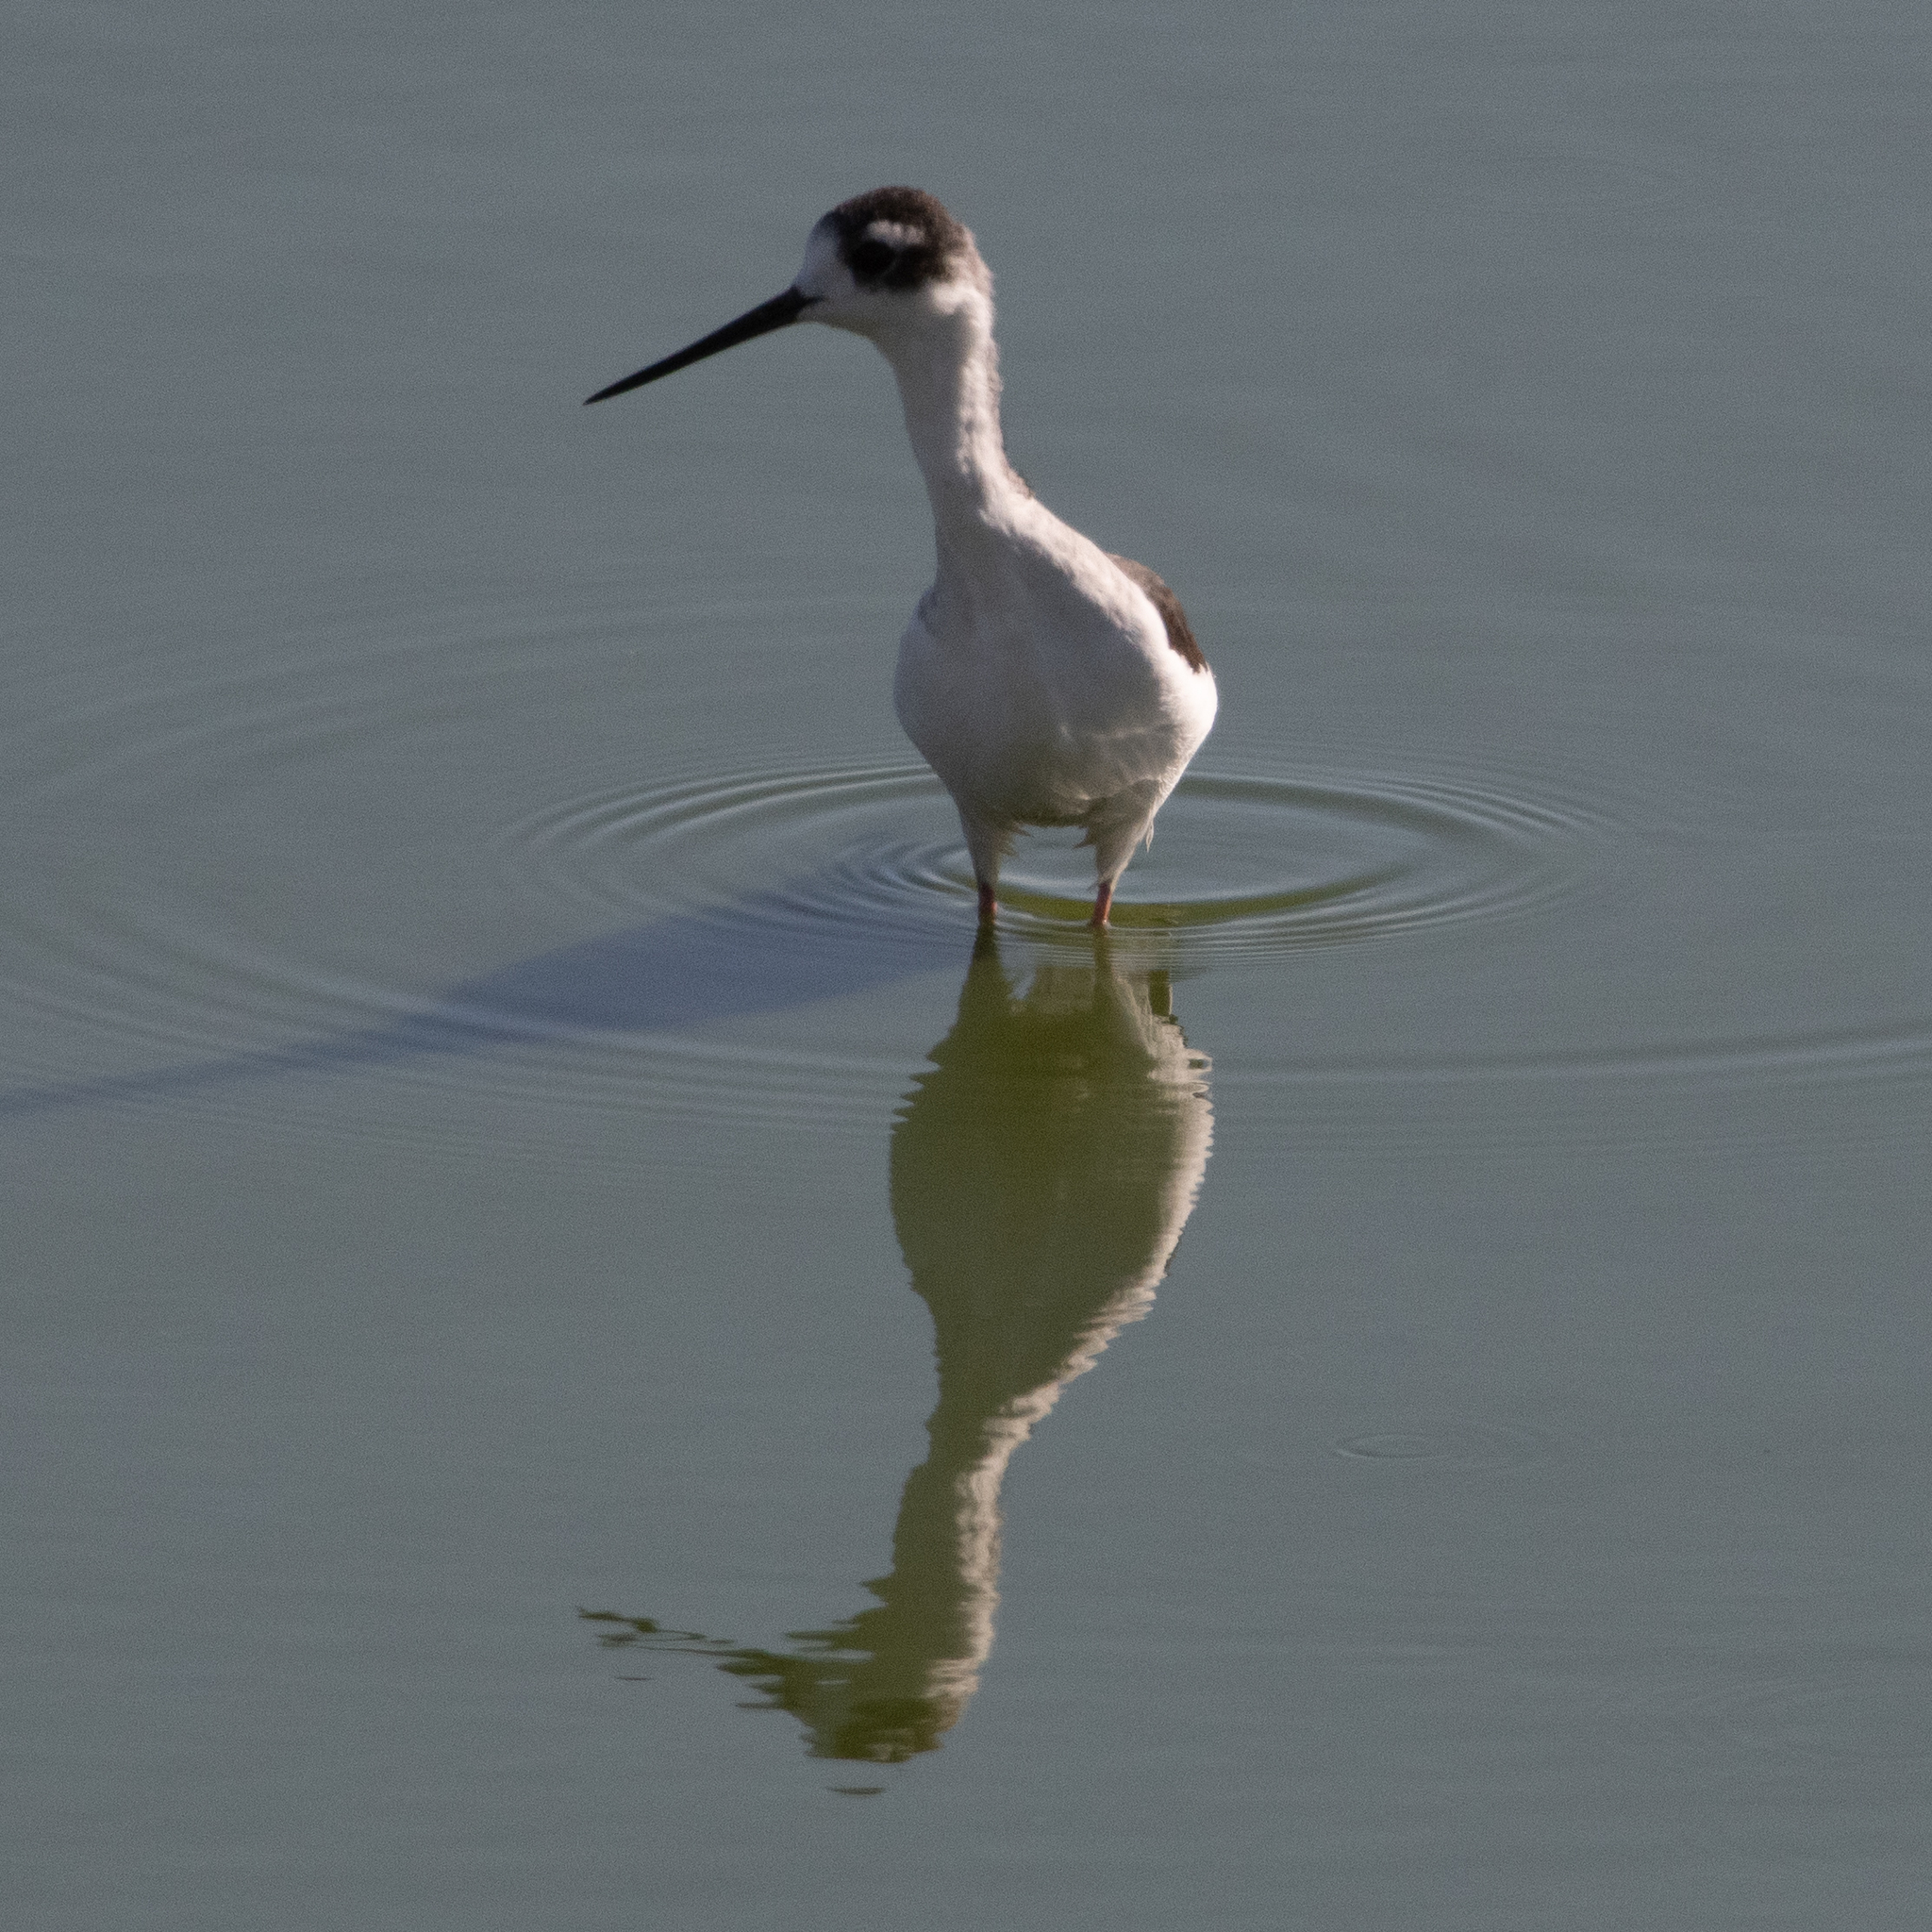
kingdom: Animalia
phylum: Chordata
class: Aves
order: Charadriiformes
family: Recurvirostridae
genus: Himantopus
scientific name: Himantopus mexicanus
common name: Black-necked stilt
